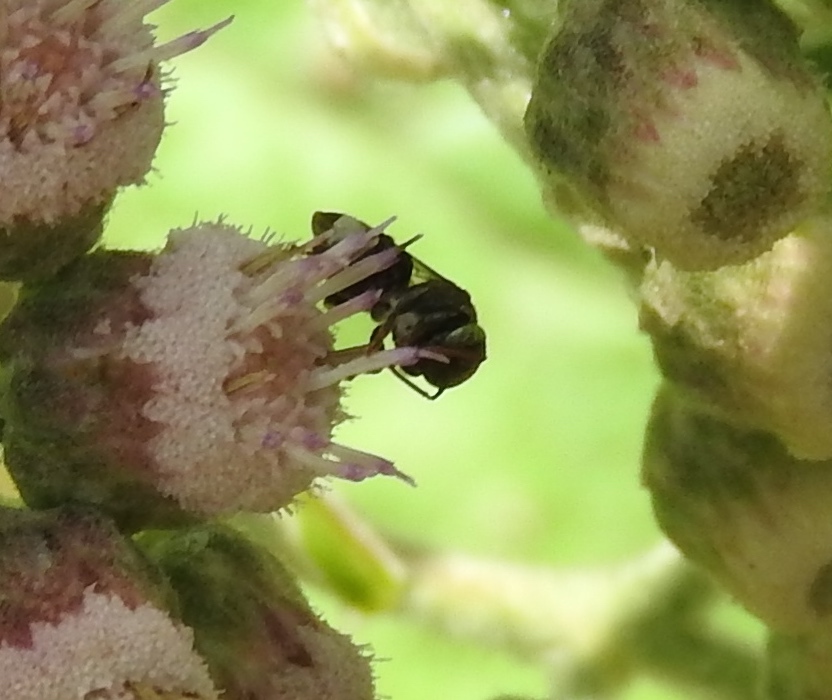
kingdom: Animalia
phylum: Arthropoda
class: Insecta
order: Hymenoptera
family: Apidae
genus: Nannotrigona
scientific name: Nannotrigona perilampoides
